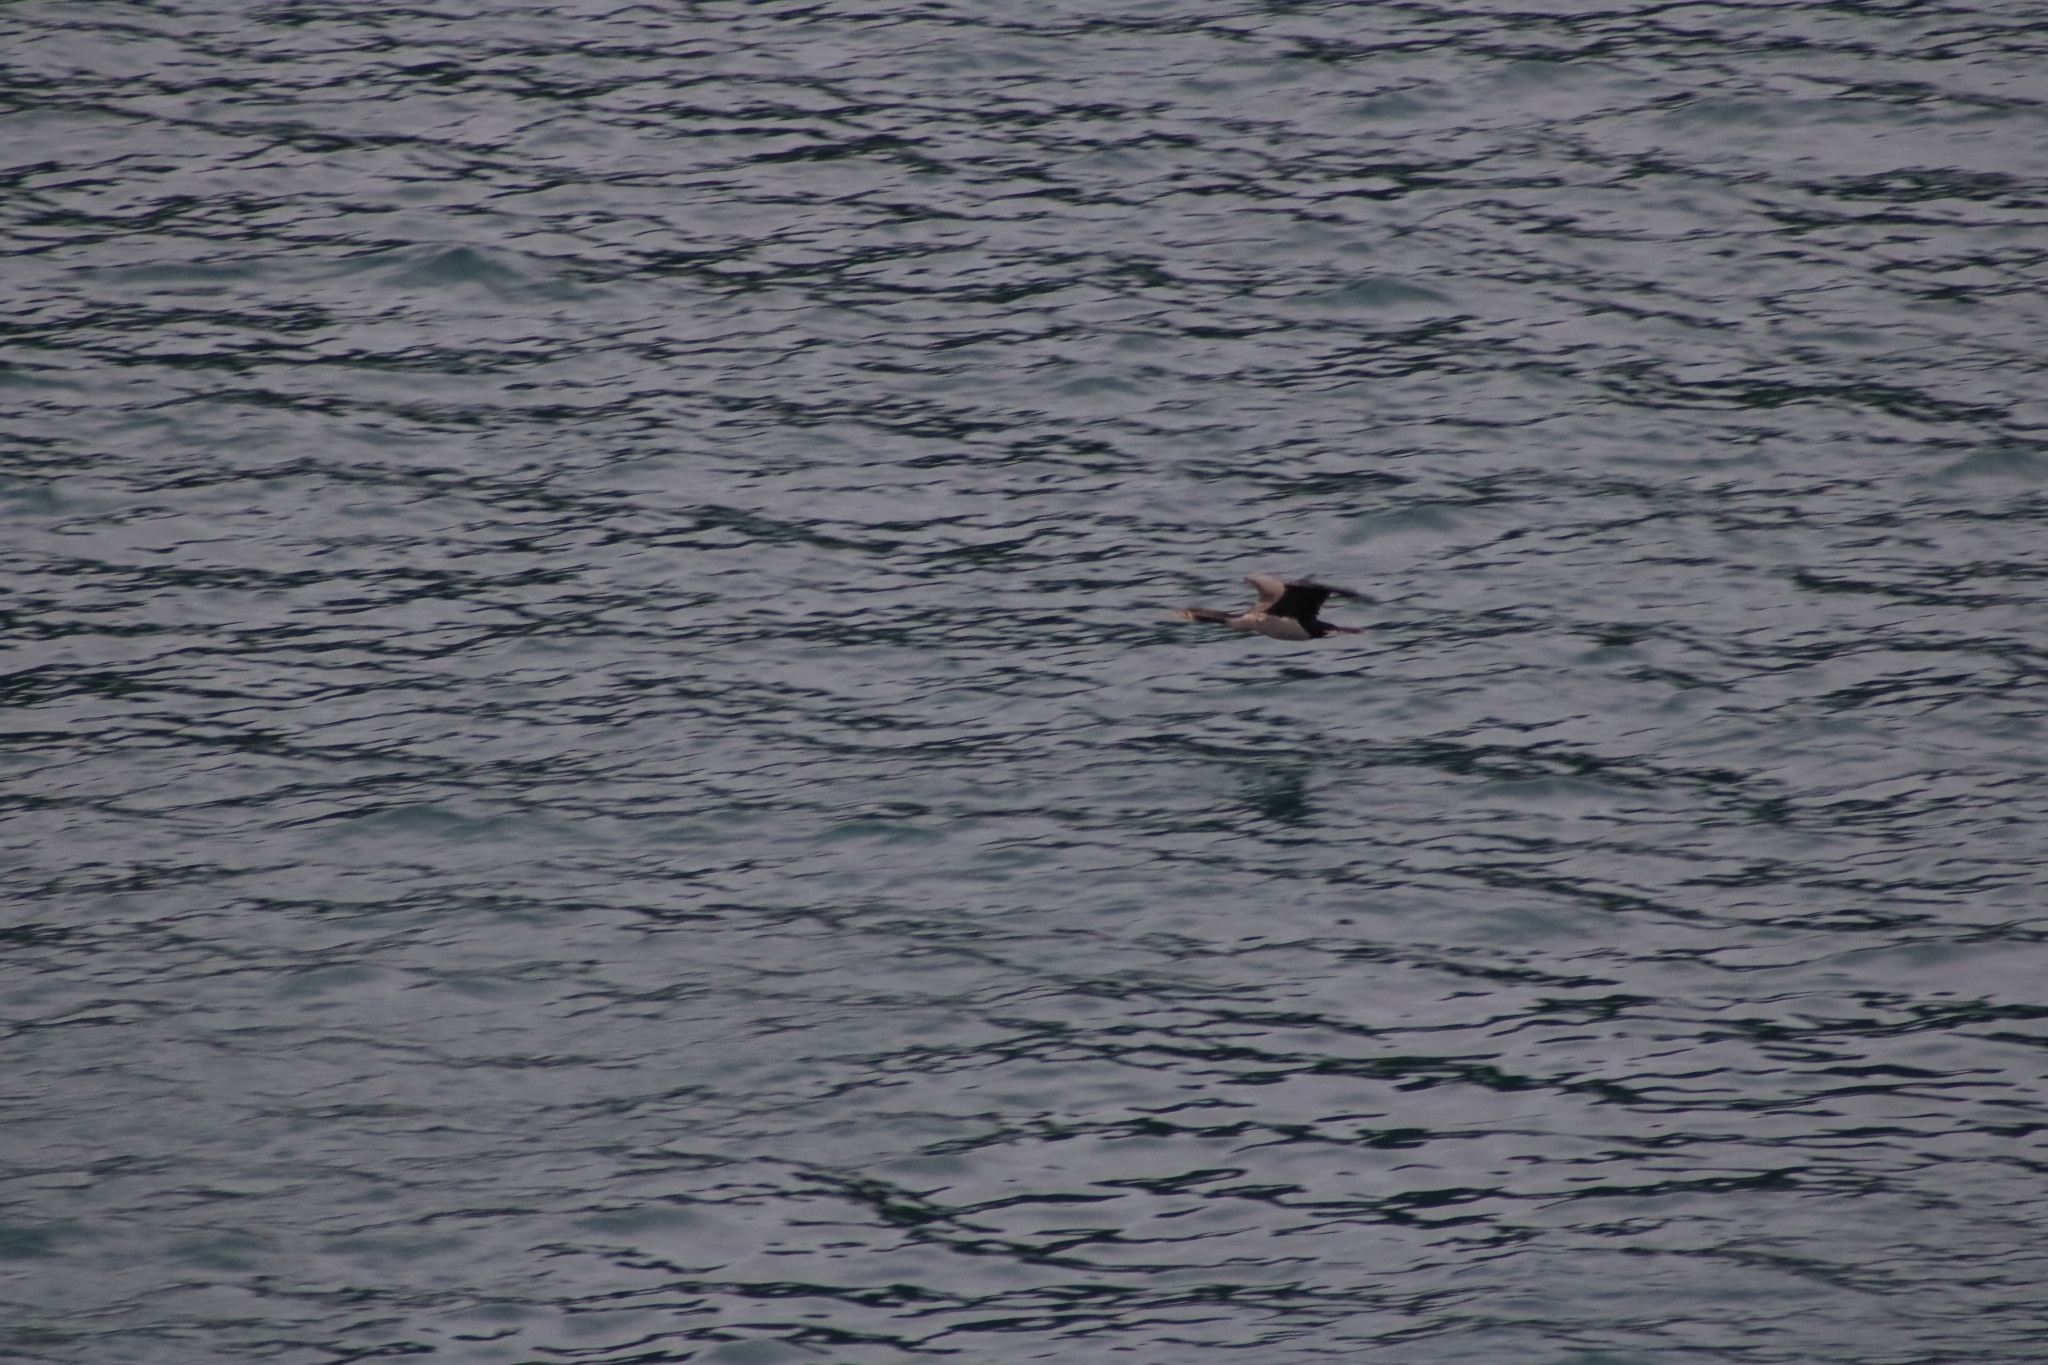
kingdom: Animalia
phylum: Chordata
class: Aves
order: Suliformes
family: Phalacrocoracidae
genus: Phalacrocorax
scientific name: Phalacrocorax punctatus
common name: Spotted shag
